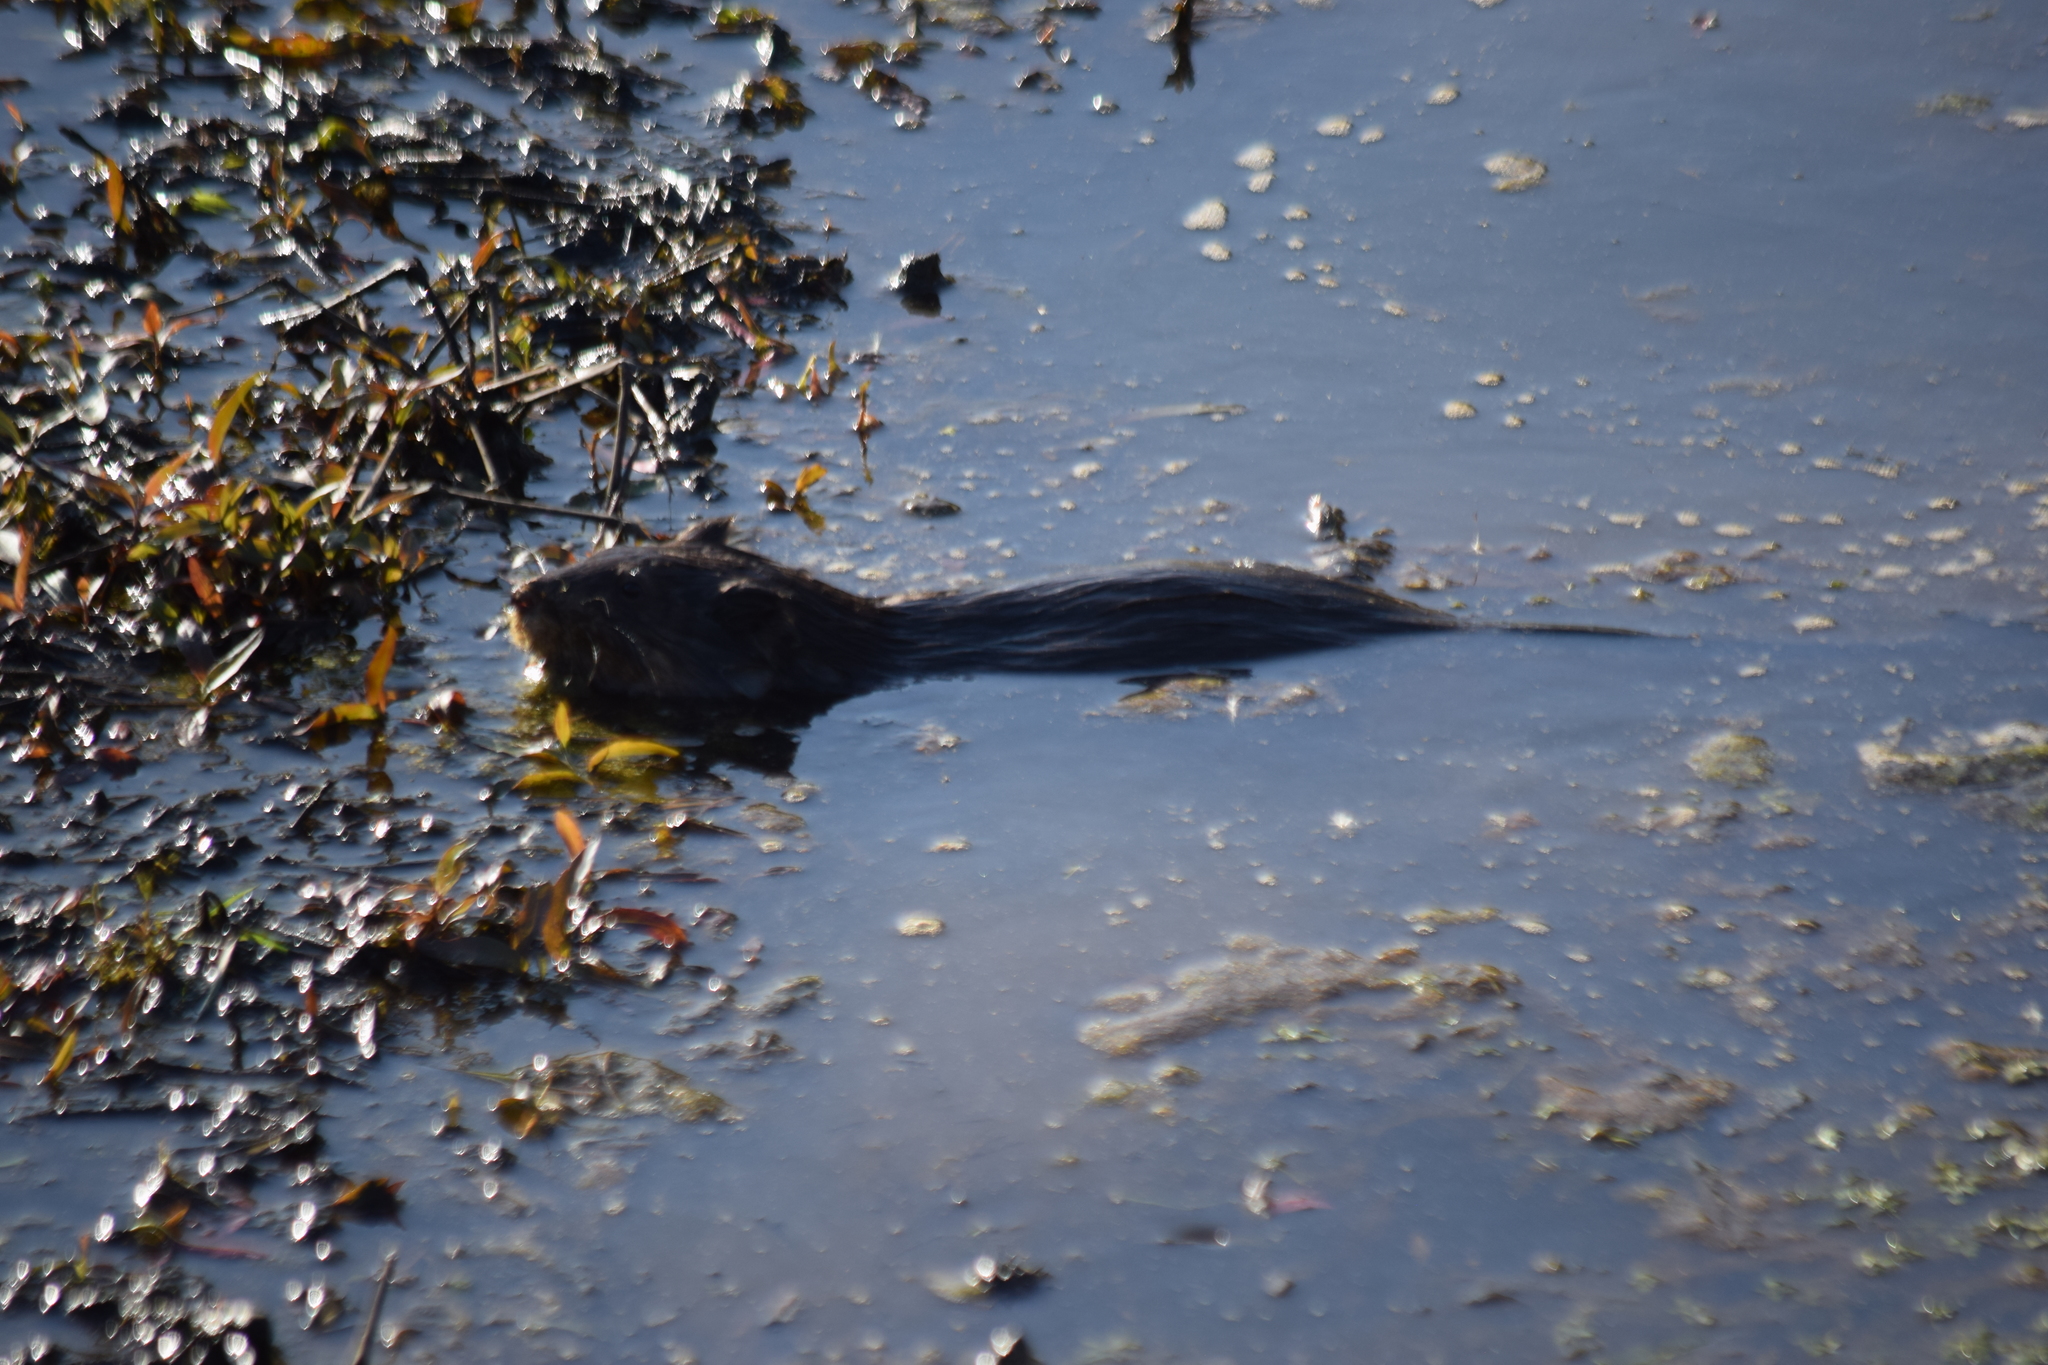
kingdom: Animalia
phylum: Chordata
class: Mammalia
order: Rodentia
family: Cricetidae
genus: Ondatra
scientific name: Ondatra zibethicus
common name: Muskrat
